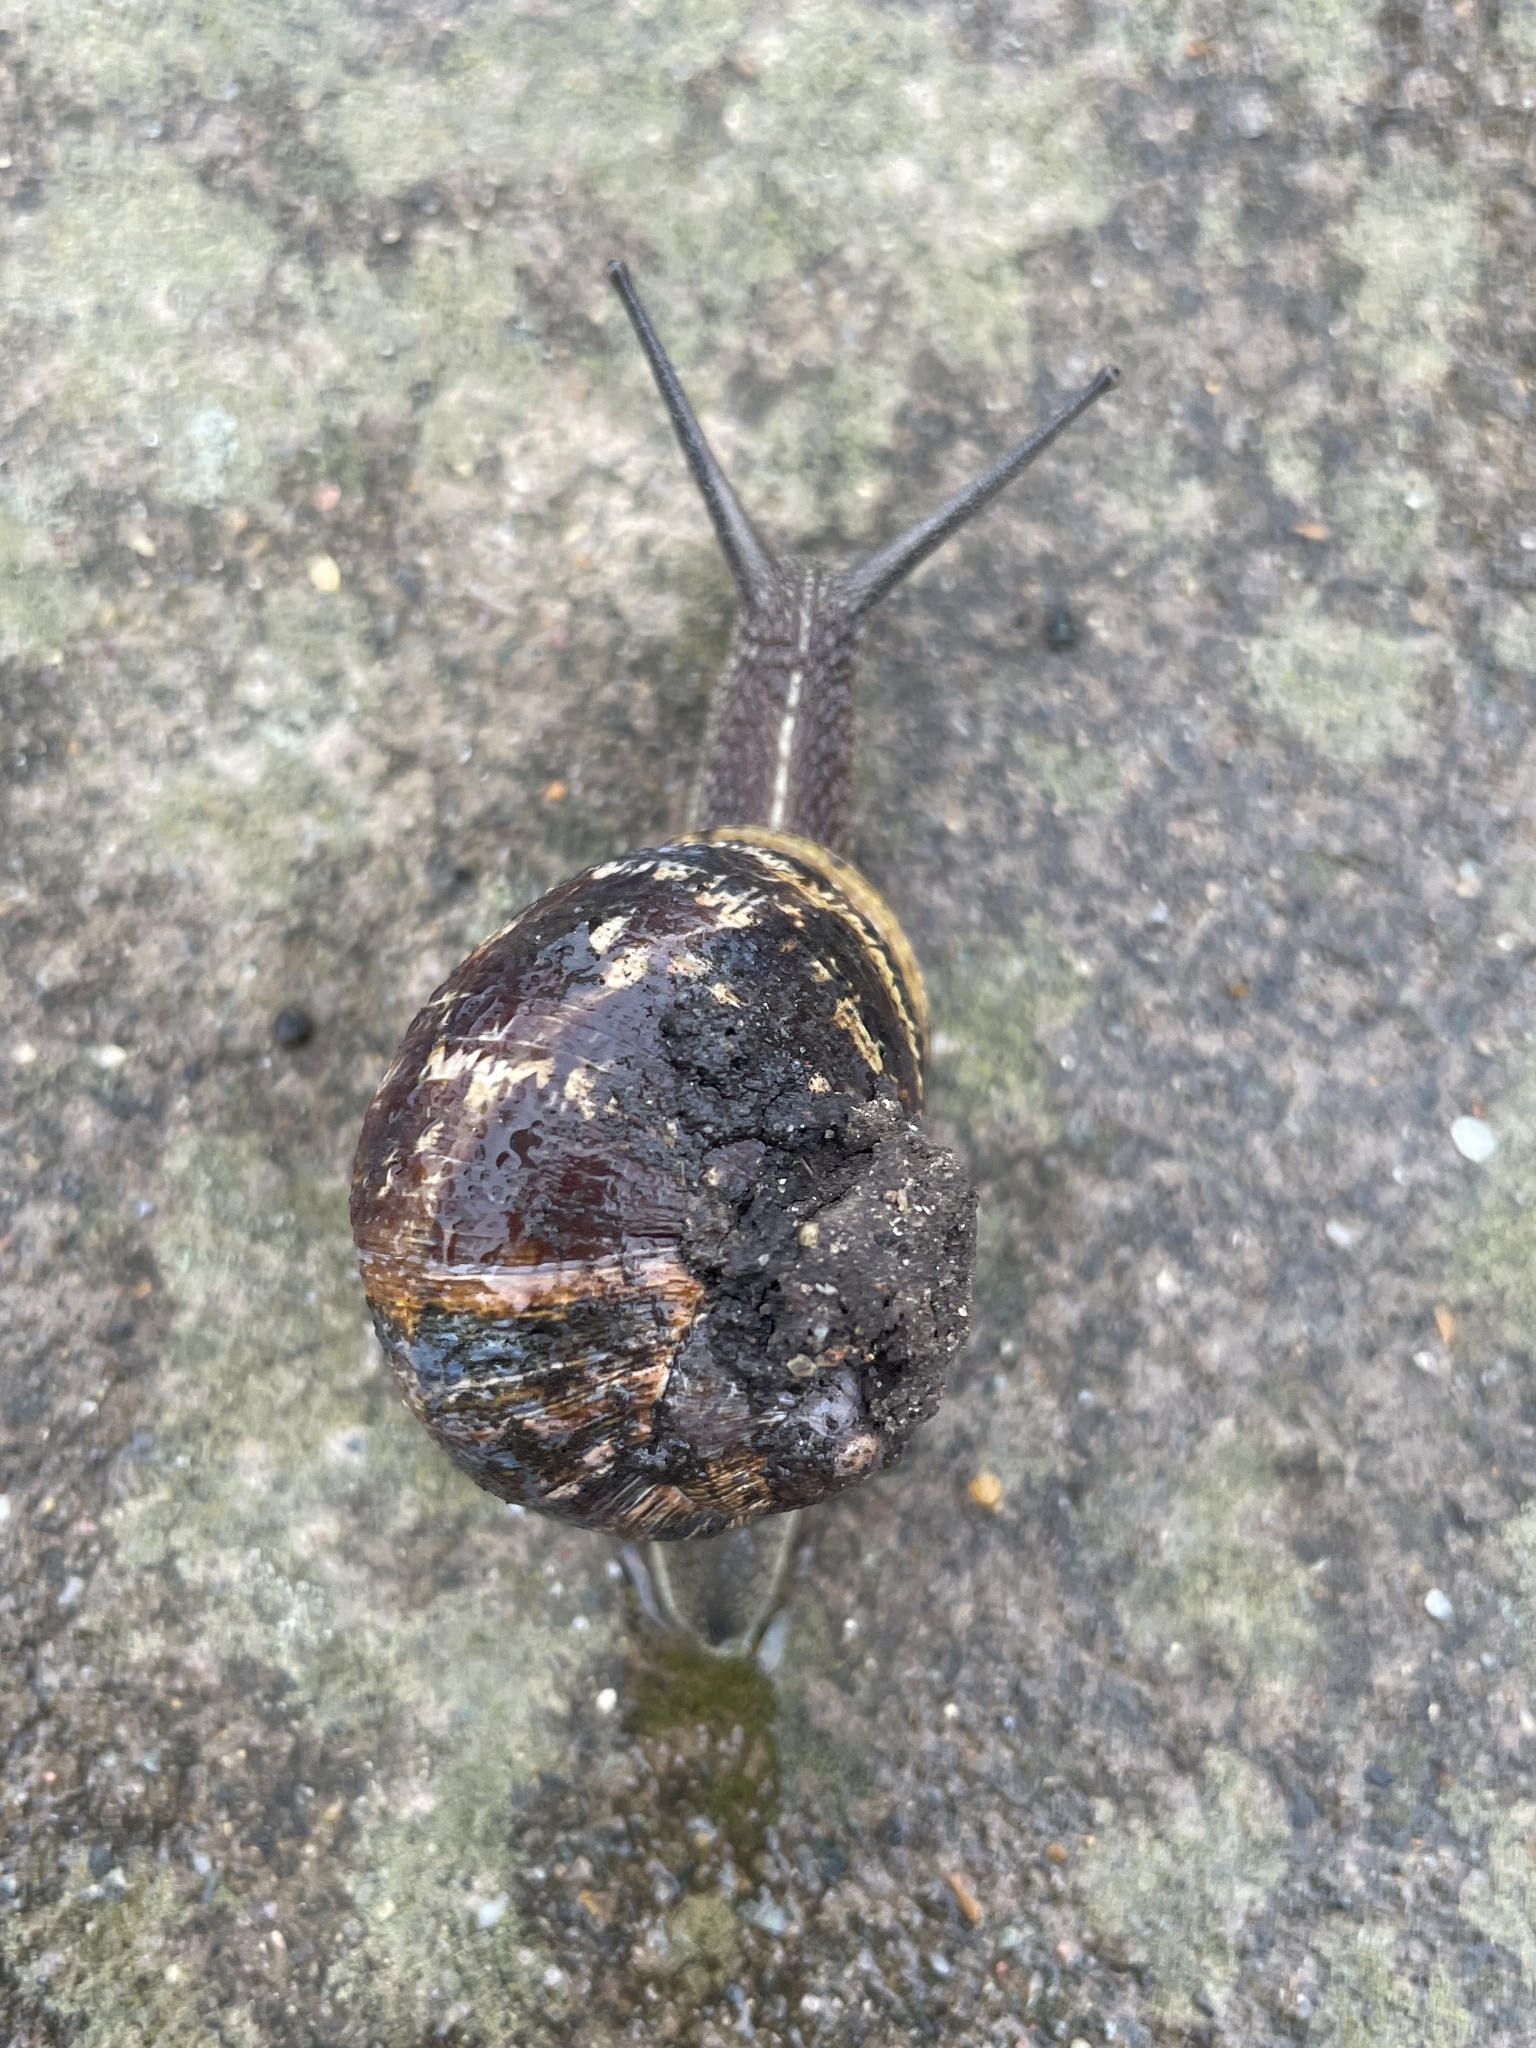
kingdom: Animalia
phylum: Mollusca
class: Gastropoda
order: Stylommatophora
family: Helicidae
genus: Cornu
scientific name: Cornu aspersum
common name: Brown garden snail
